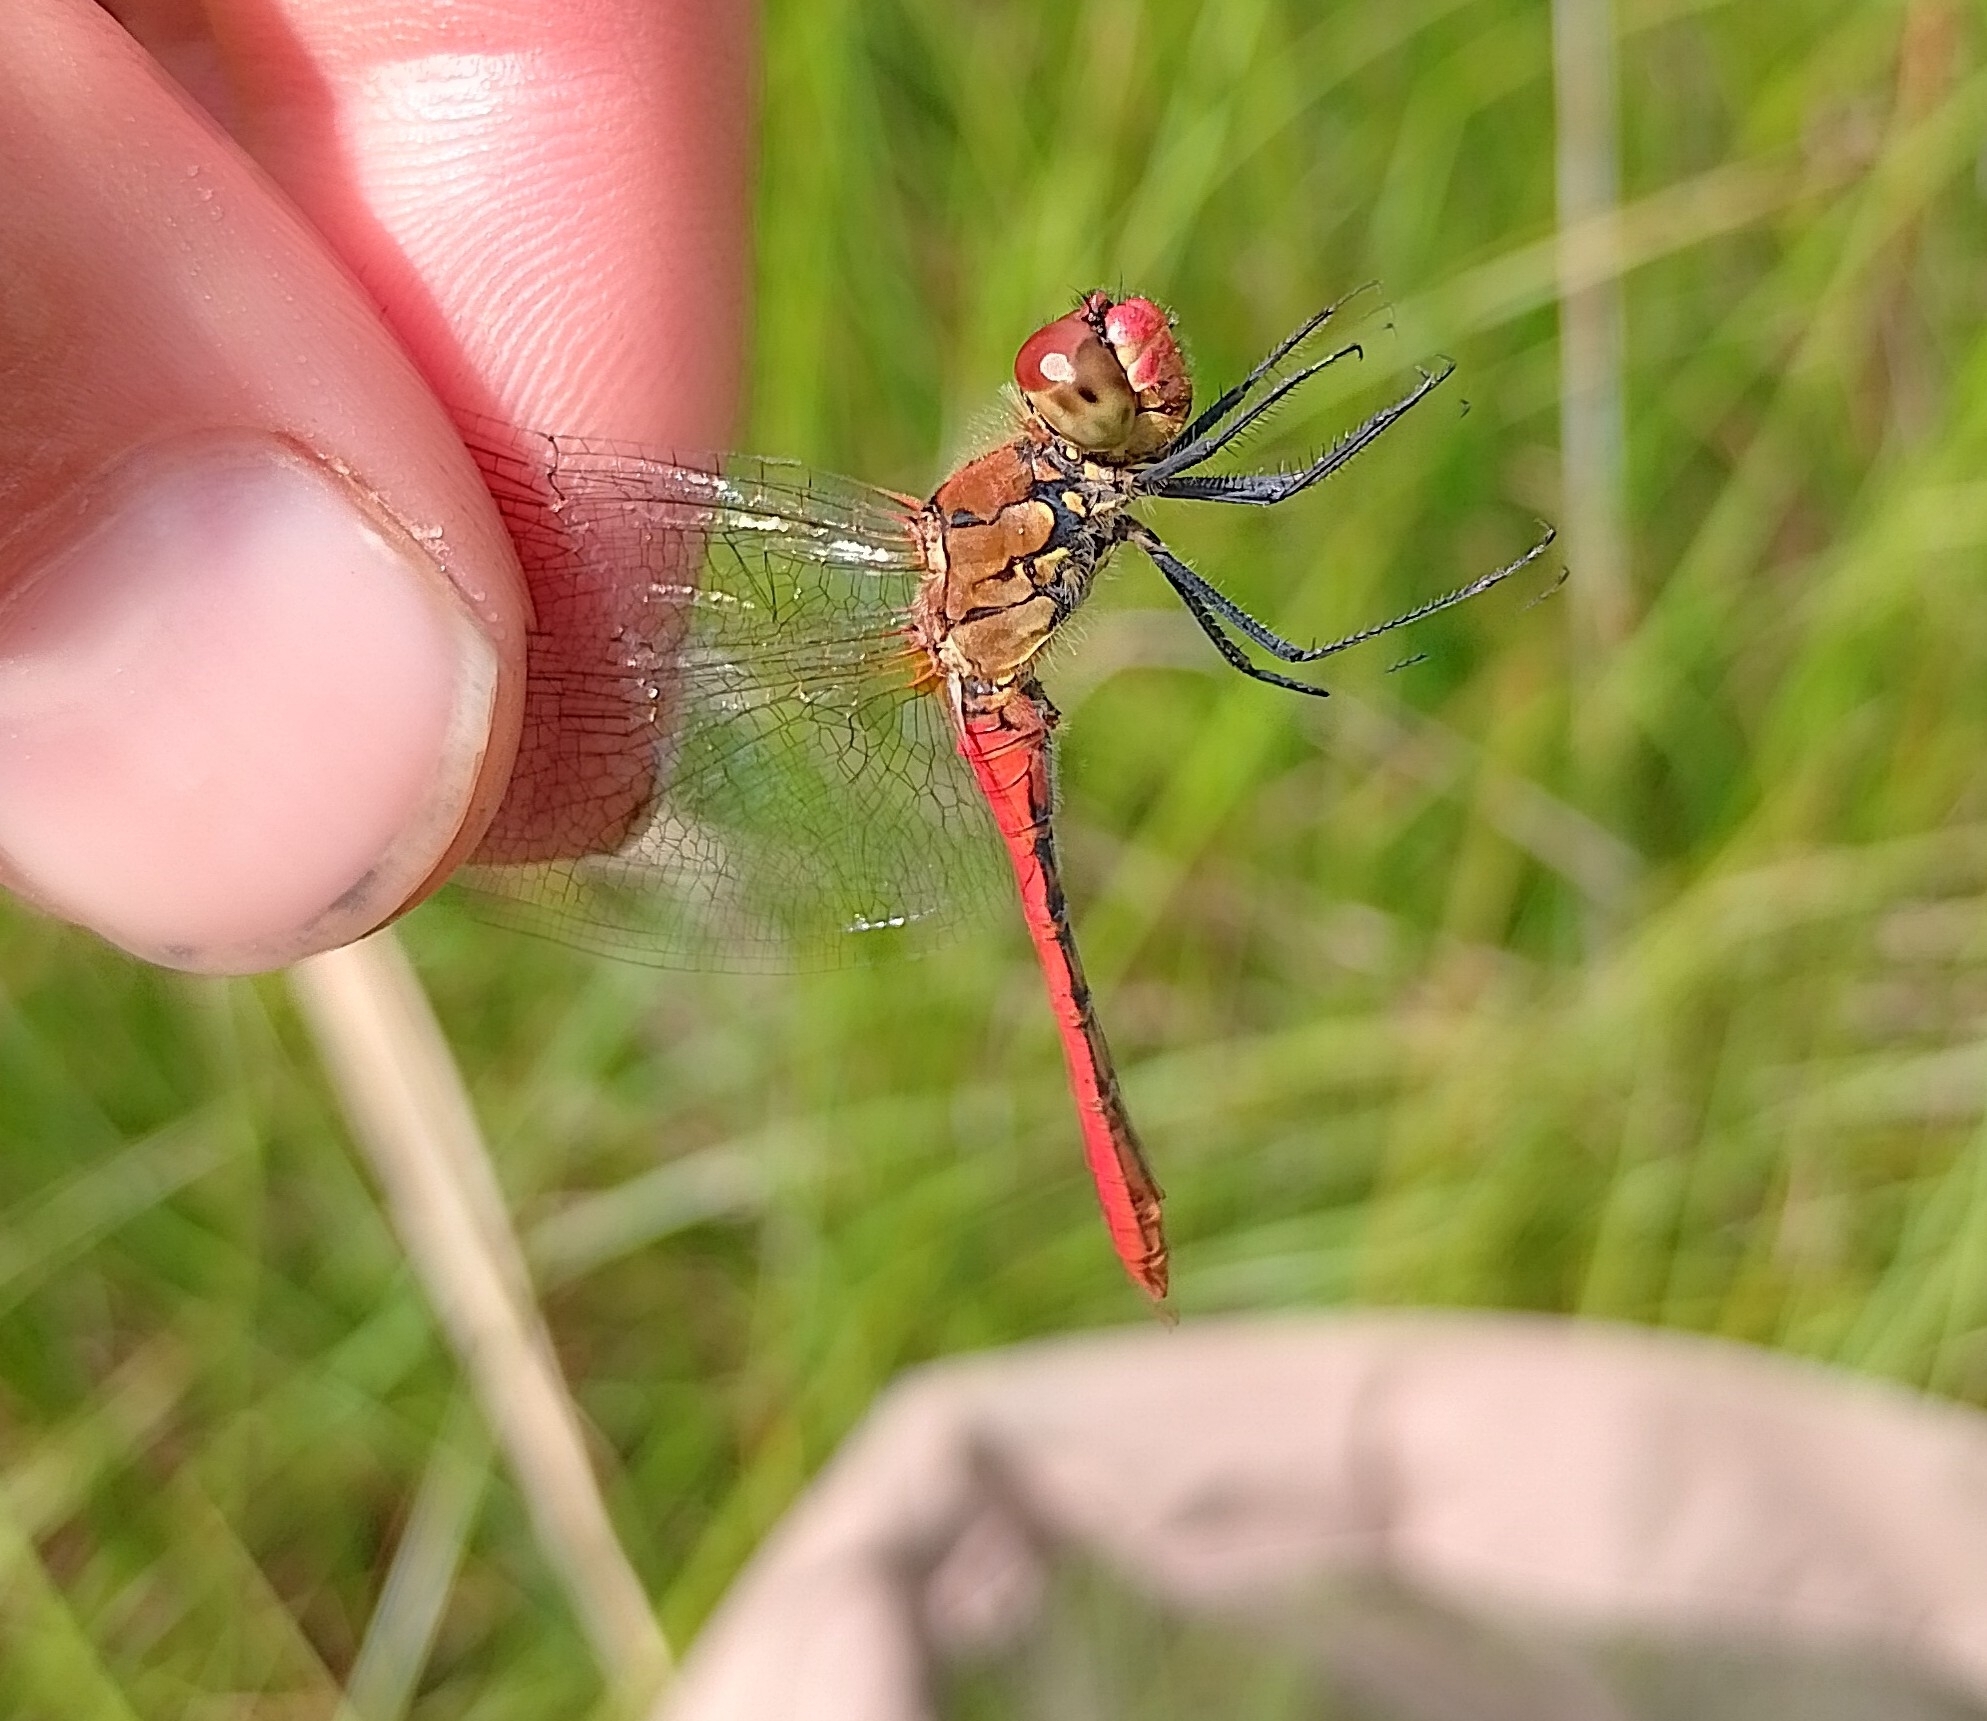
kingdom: Animalia
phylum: Arthropoda
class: Insecta
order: Odonata
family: Libellulidae
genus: Sympetrum
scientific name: Sympetrum sanguineum
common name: Ruddy darter
